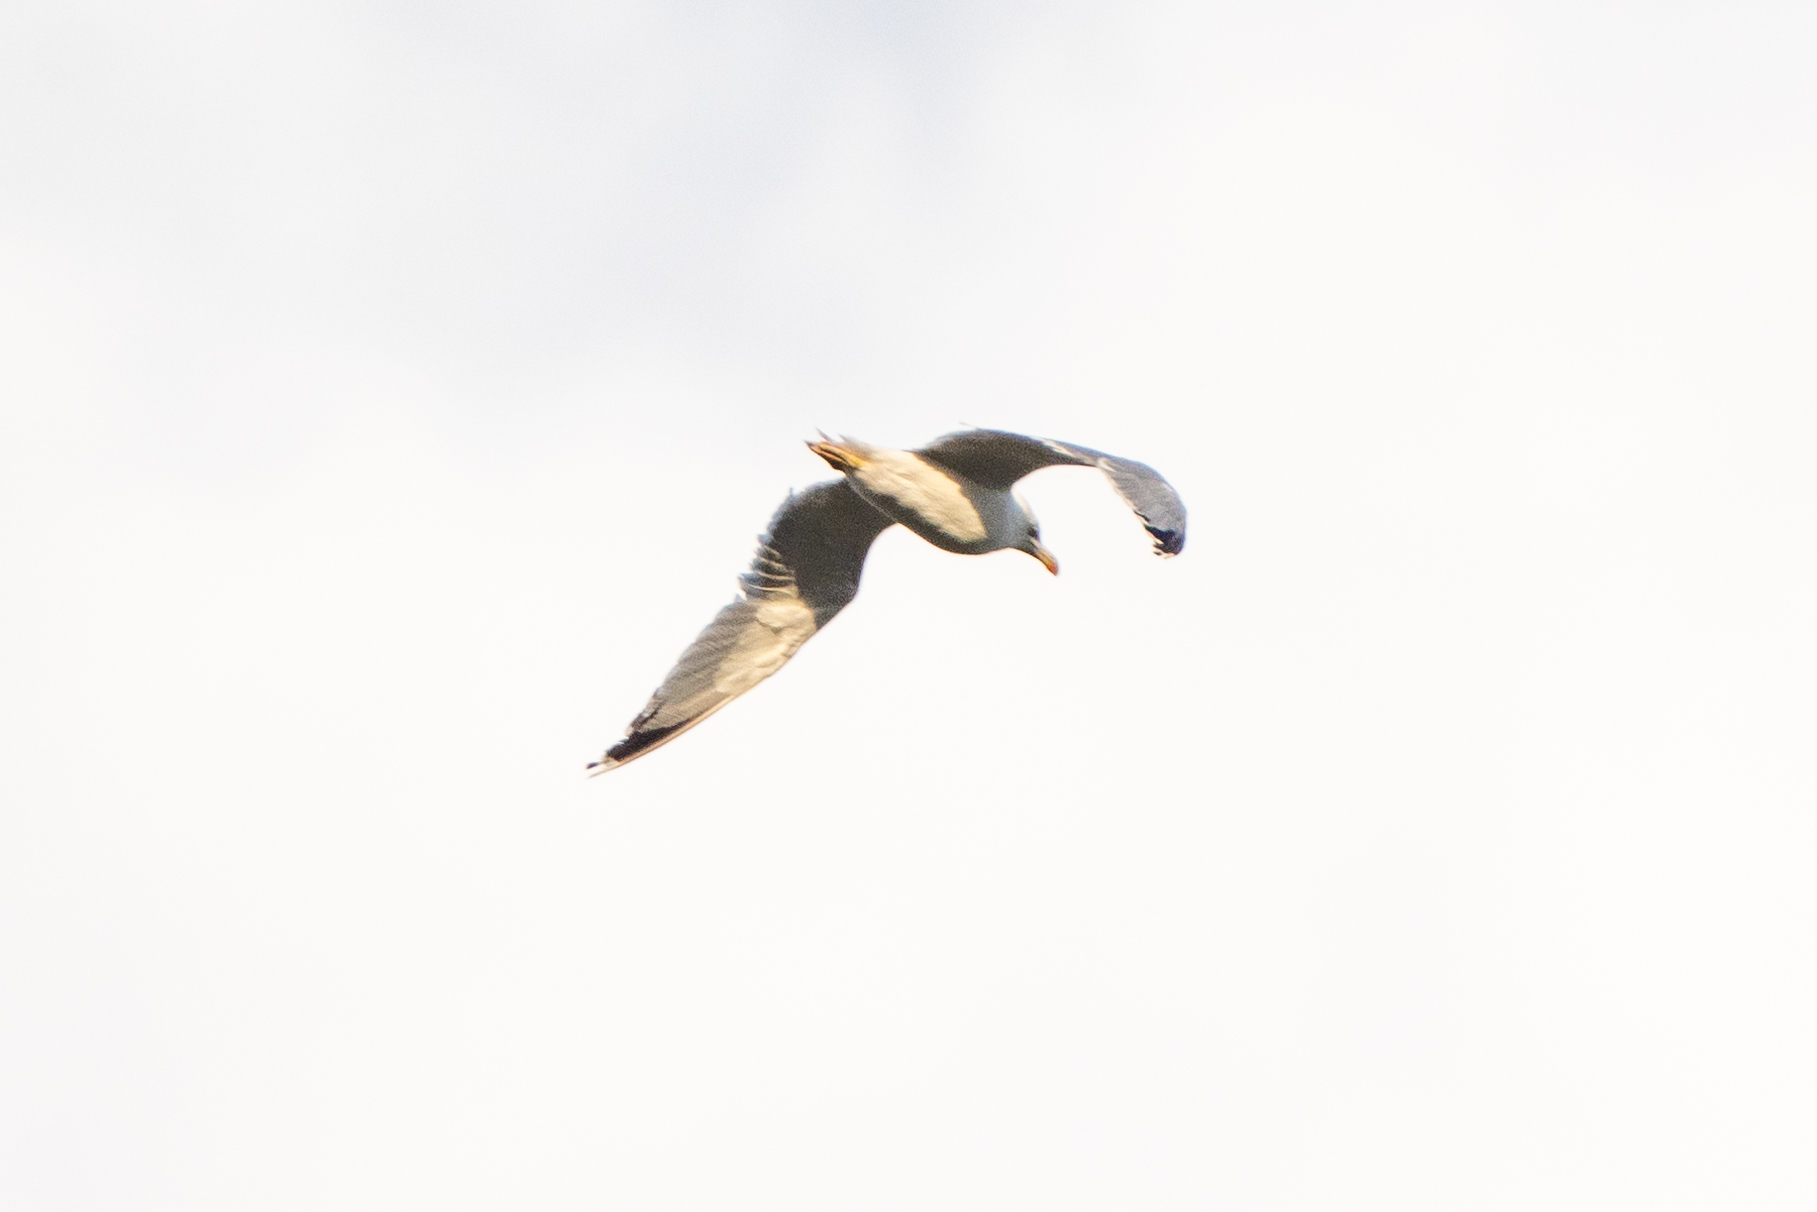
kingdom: Animalia
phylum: Chordata
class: Aves
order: Charadriiformes
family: Laridae
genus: Larus
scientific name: Larus michahellis
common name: Yellow-legged gull
